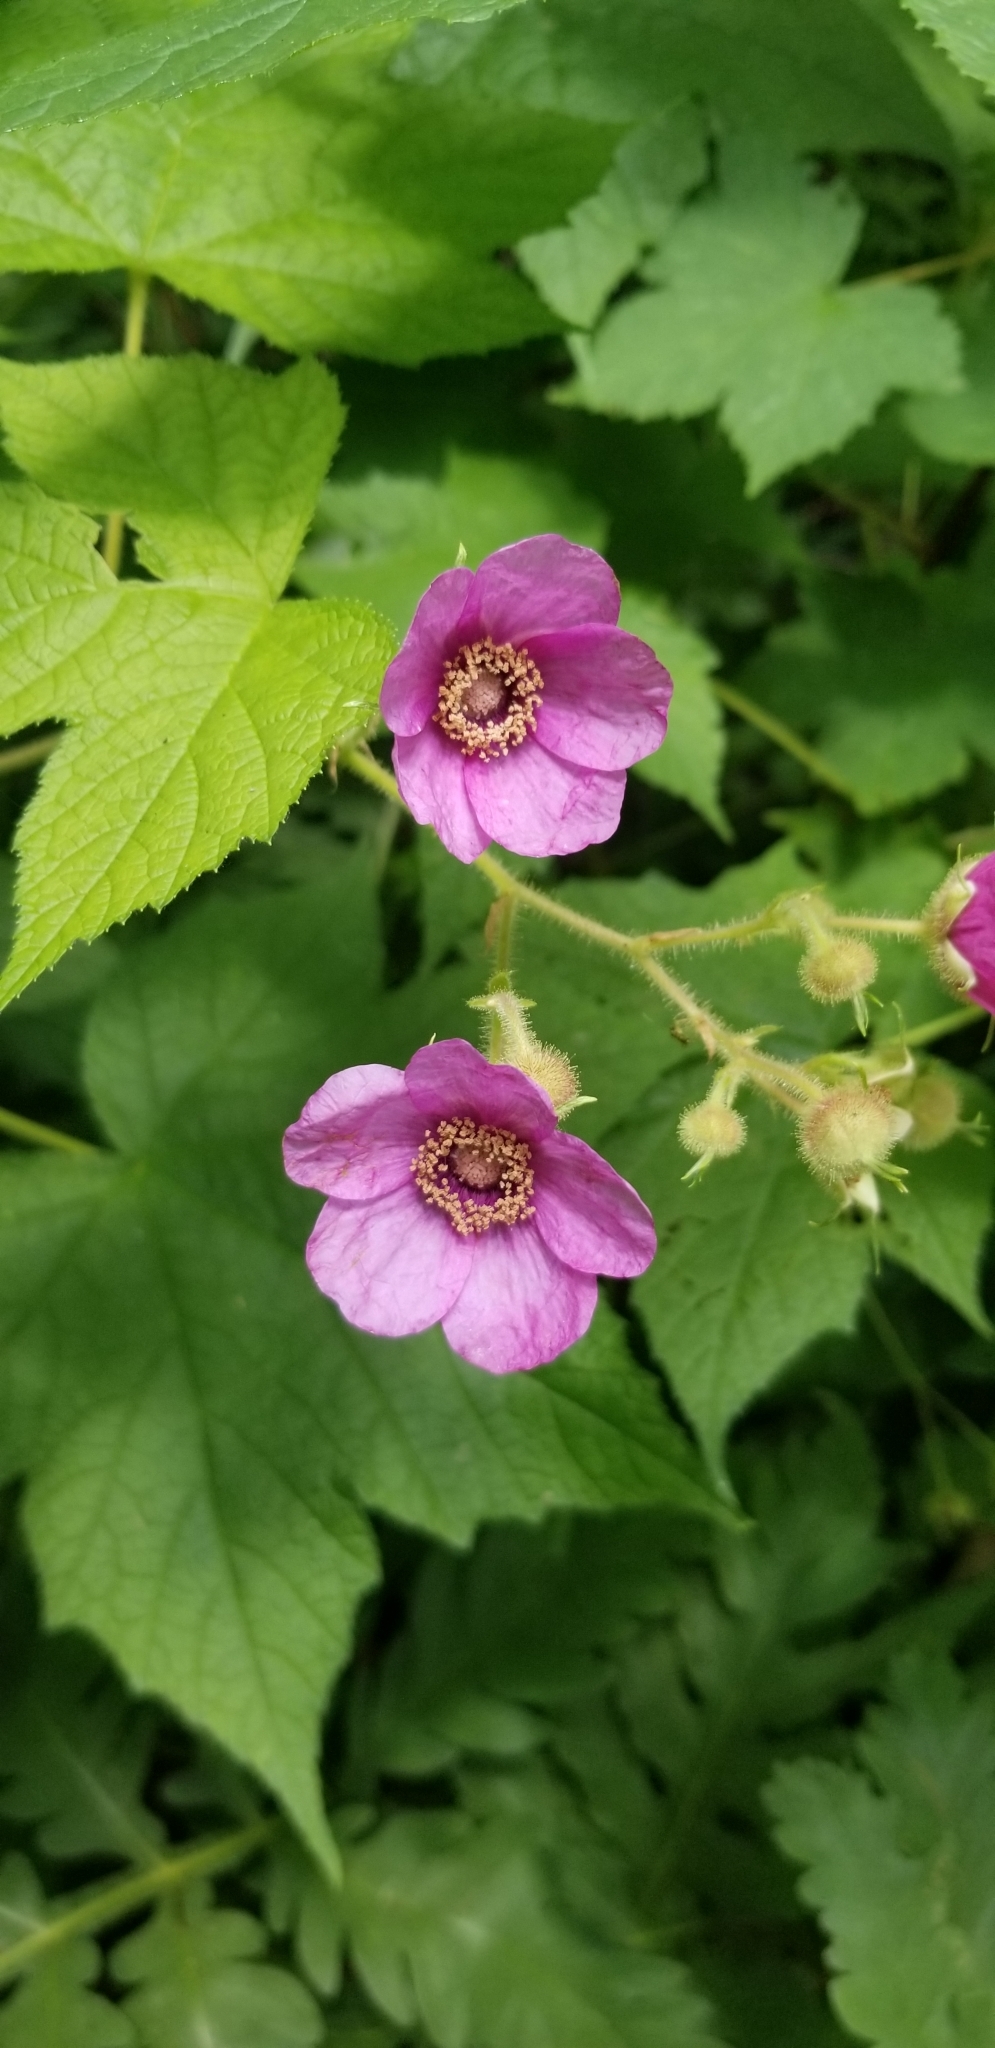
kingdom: Plantae
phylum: Tracheophyta
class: Magnoliopsida
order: Rosales
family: Rosaceae
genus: Rubus
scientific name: Rubus odoratus
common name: Purple-flowered raspberry
